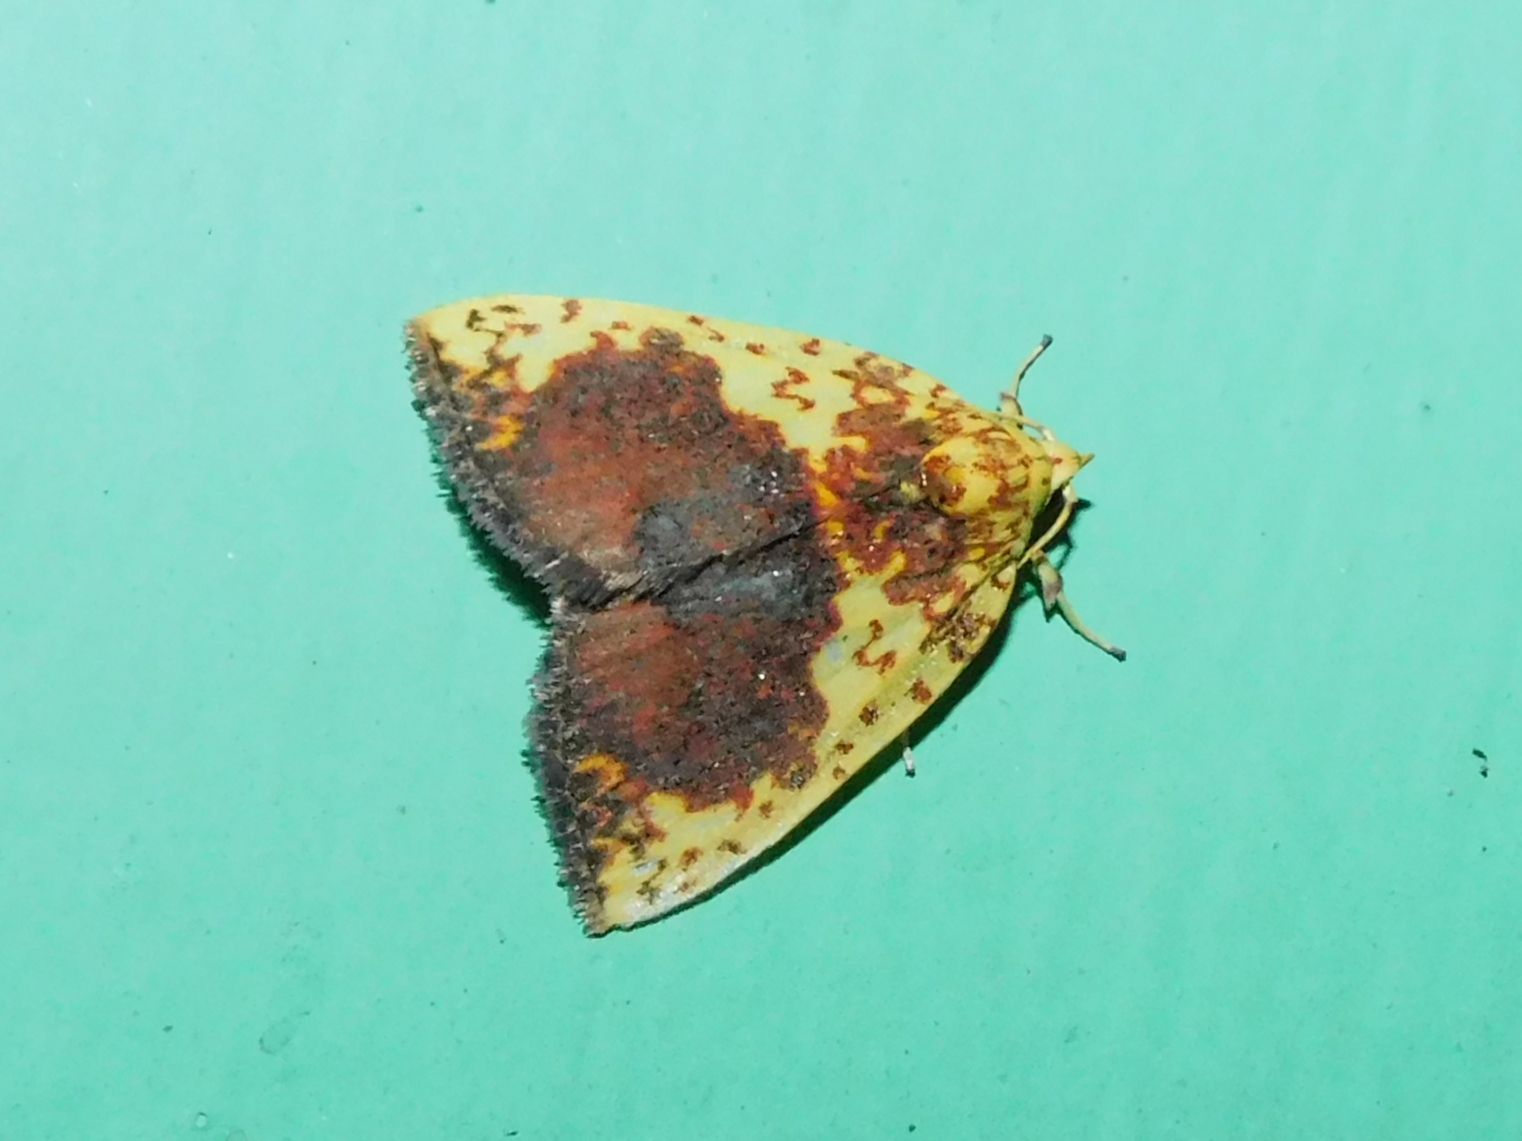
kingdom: Animalia
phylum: Arthropoda
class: Insecta
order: Lepidoptera
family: Nolidae
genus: Siglophora
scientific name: Siglophora sanguinolenta
